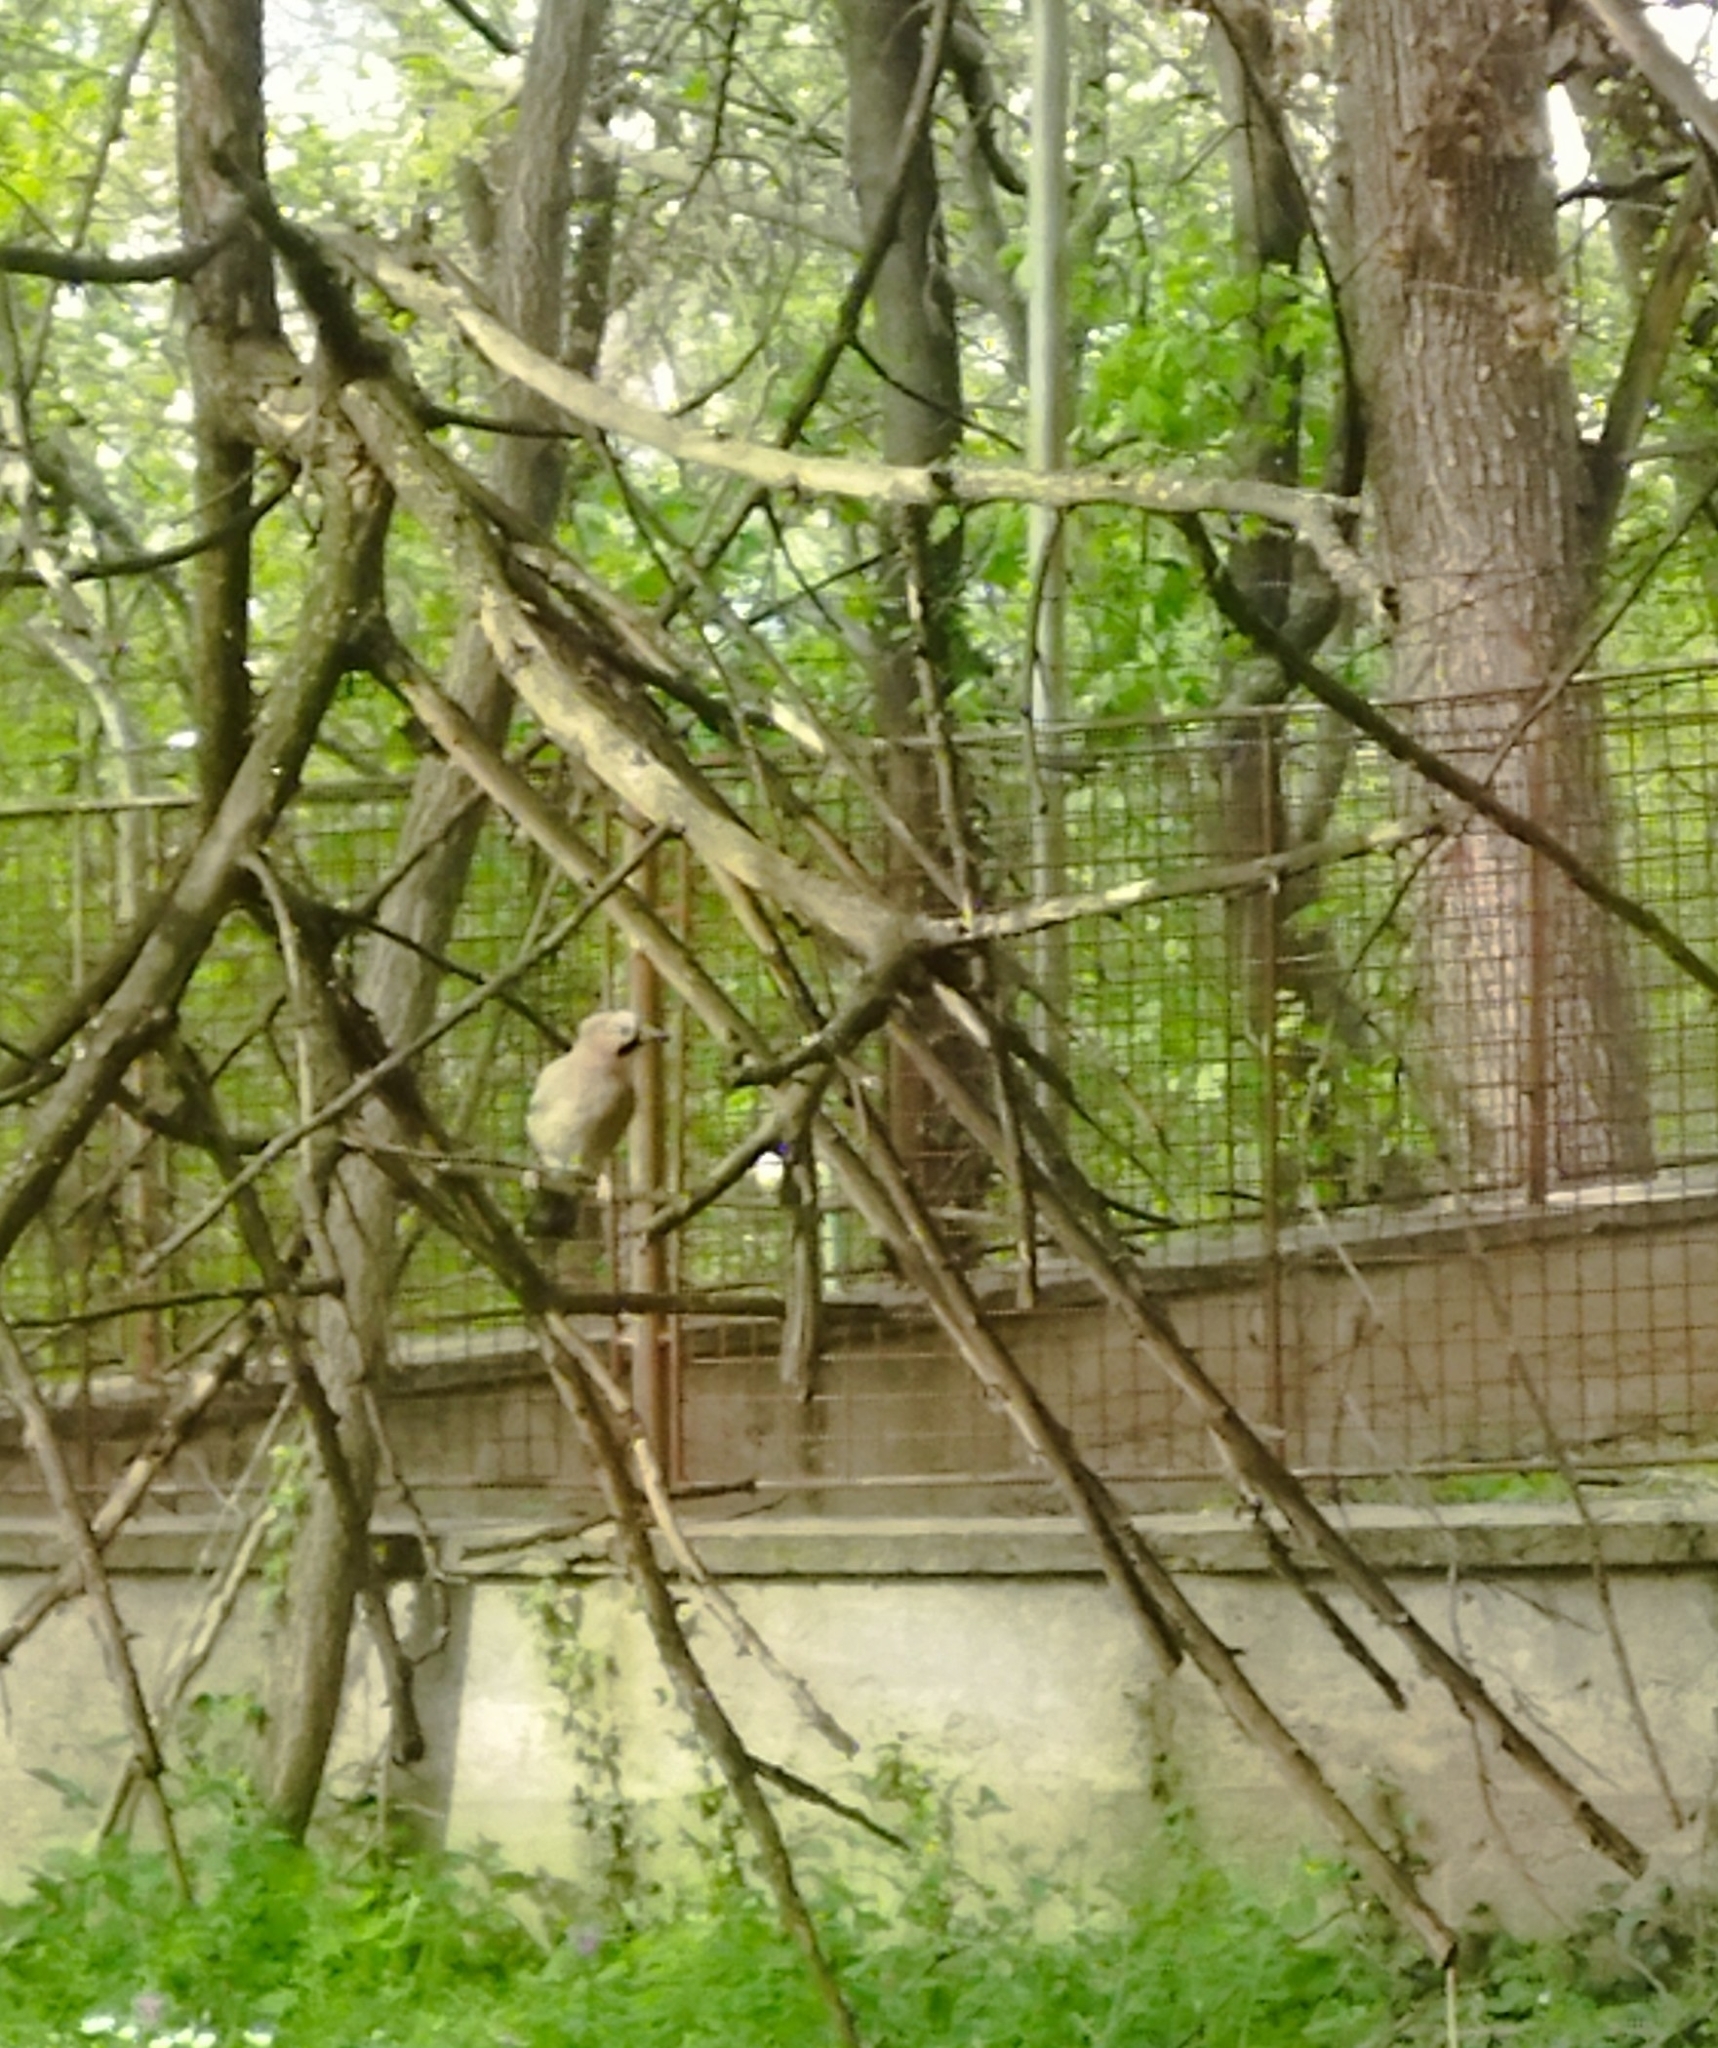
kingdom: Animalia
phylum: Chordata
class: Aves
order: Passeriformes
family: Corvidae
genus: Garrulus
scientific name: Garrulus glandarius
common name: Eurasian jay
